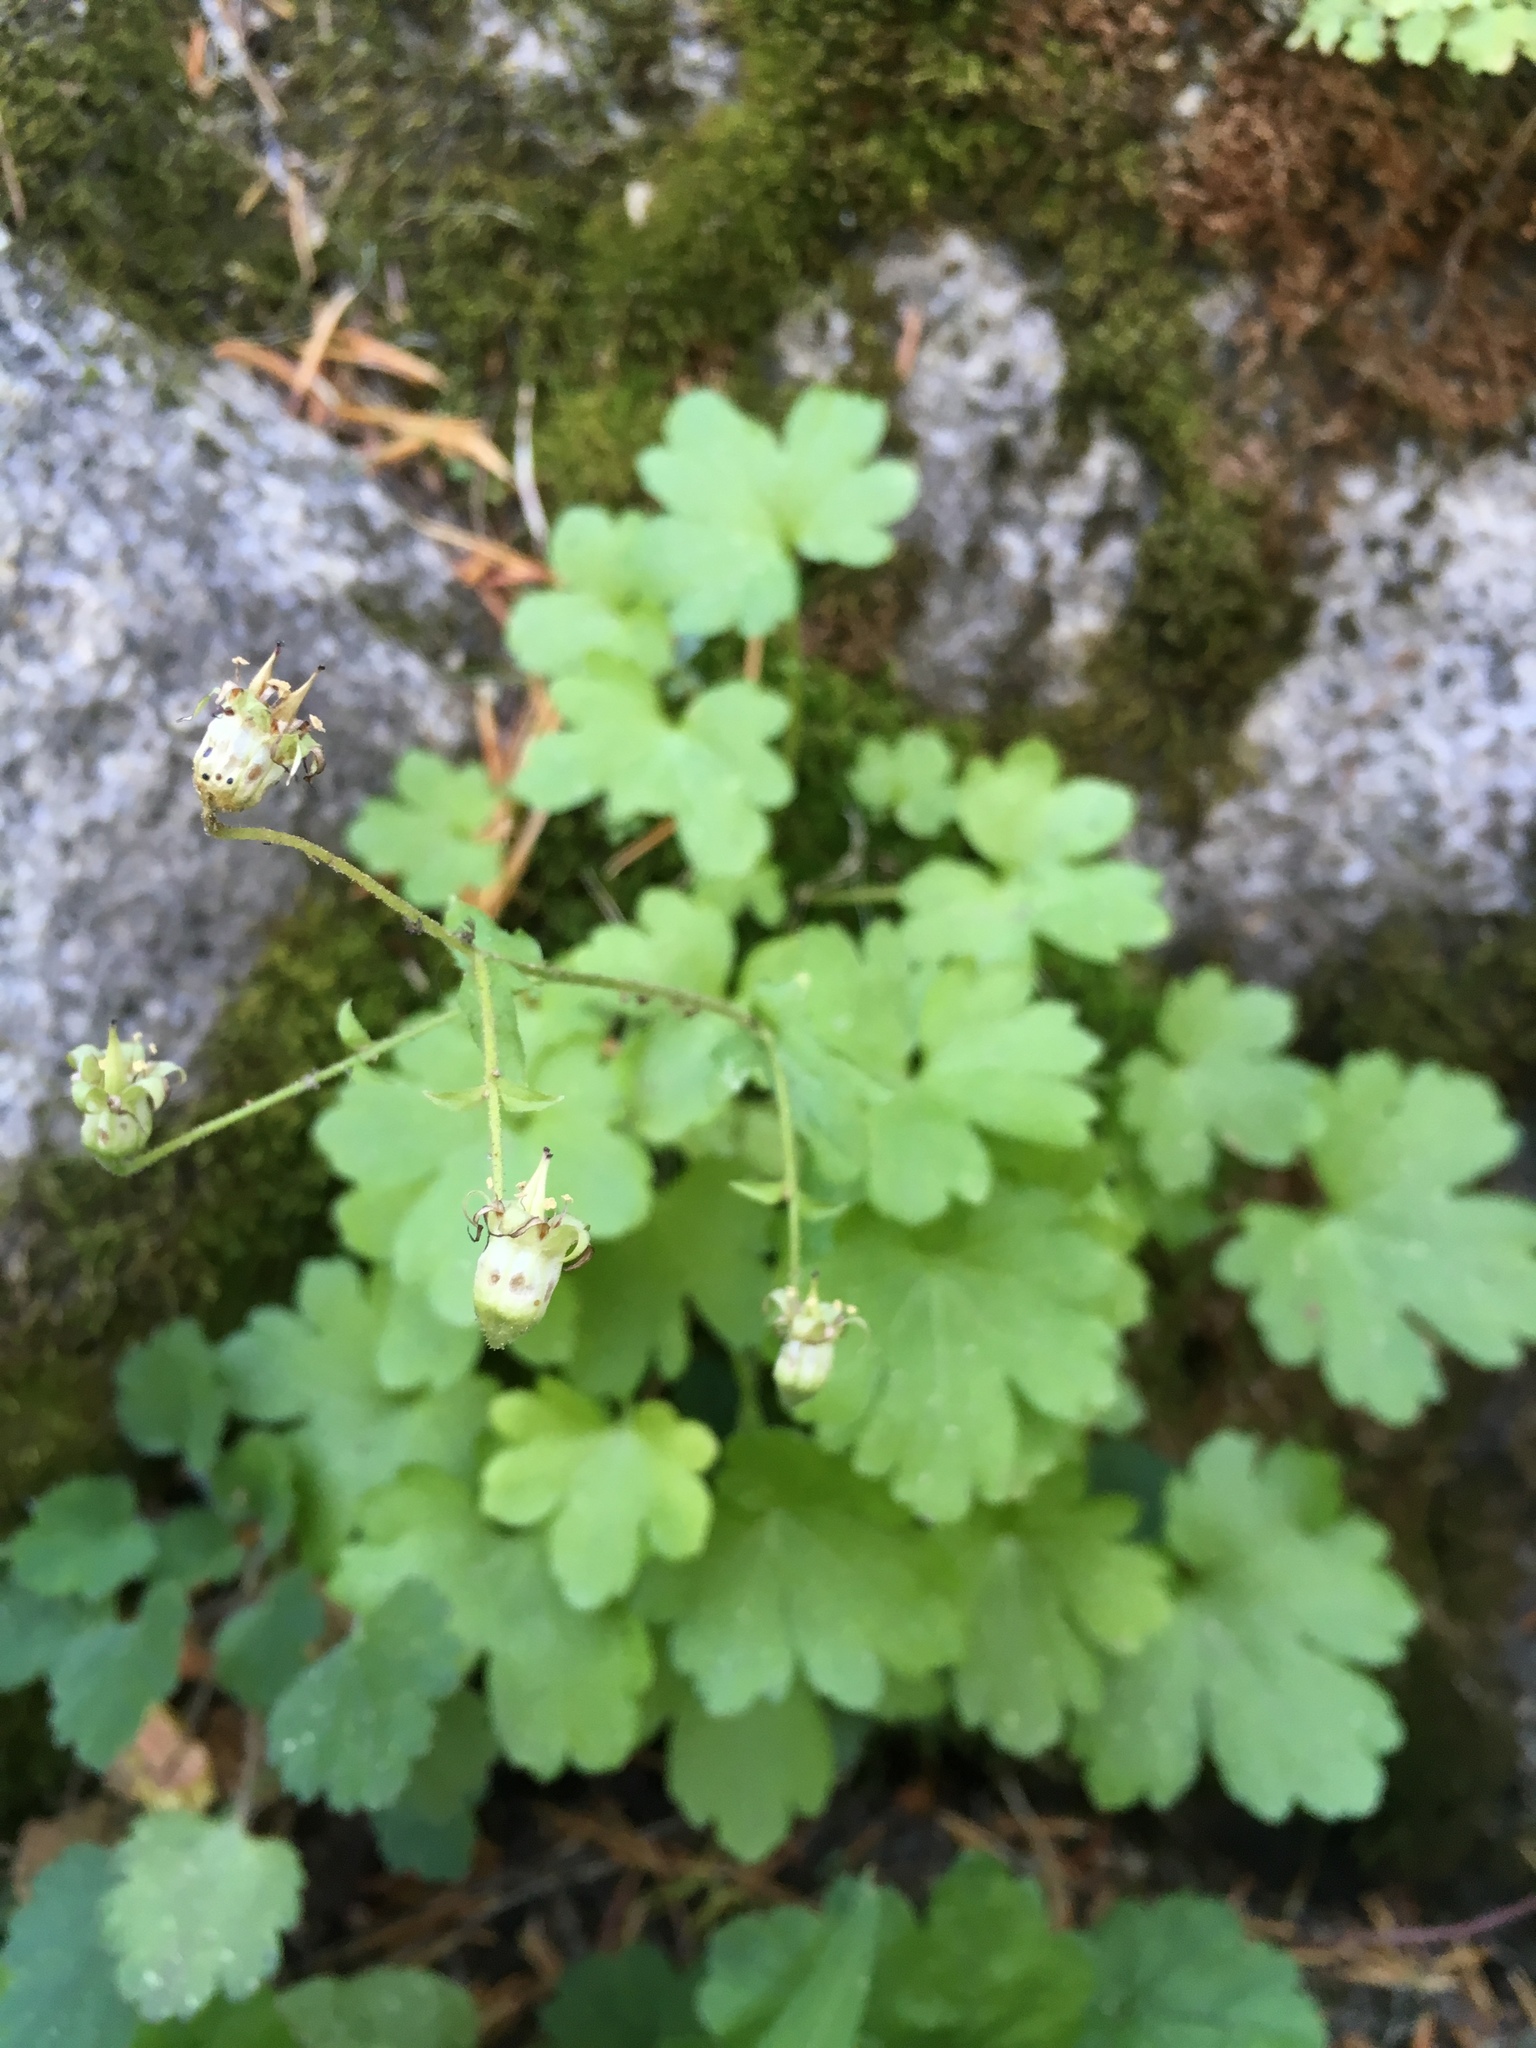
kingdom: Plantae
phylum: Tracheophyta
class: Magnoliopsida
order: Saxifragales
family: Saxifragaceae
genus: Bolandra
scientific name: Bolandra californica
